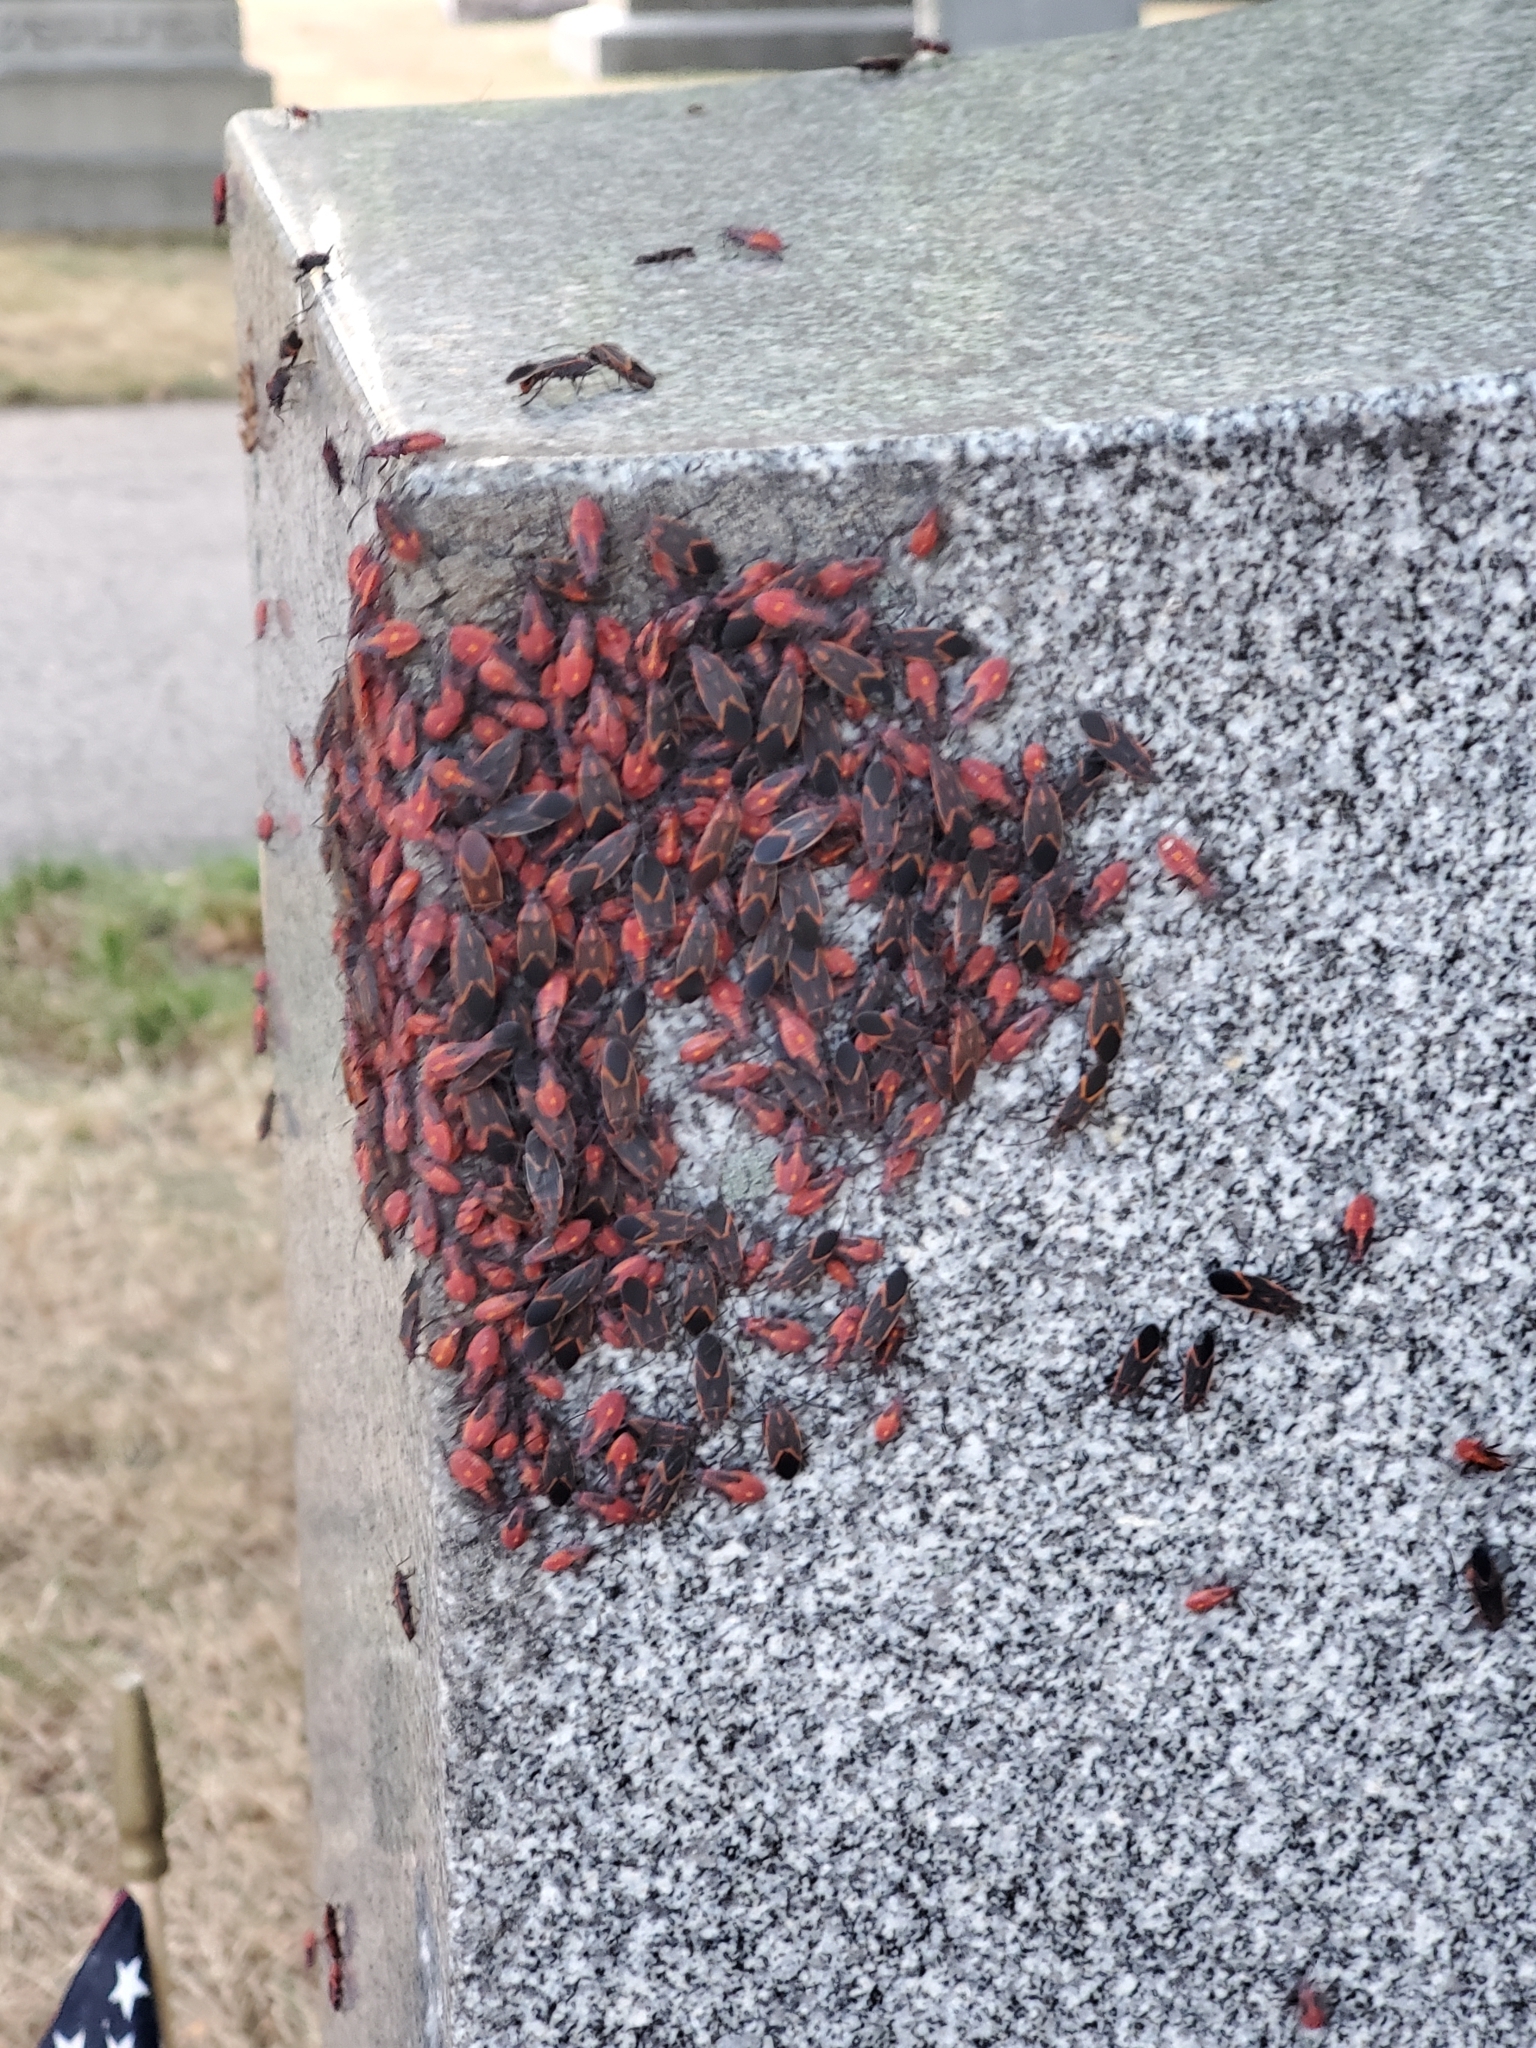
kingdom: Animalia
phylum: Arthropoda
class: Insecta
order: Hemiptera
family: Rhopalidae
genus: Boisea
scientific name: Boisea trivittata
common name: Boxelder bug
